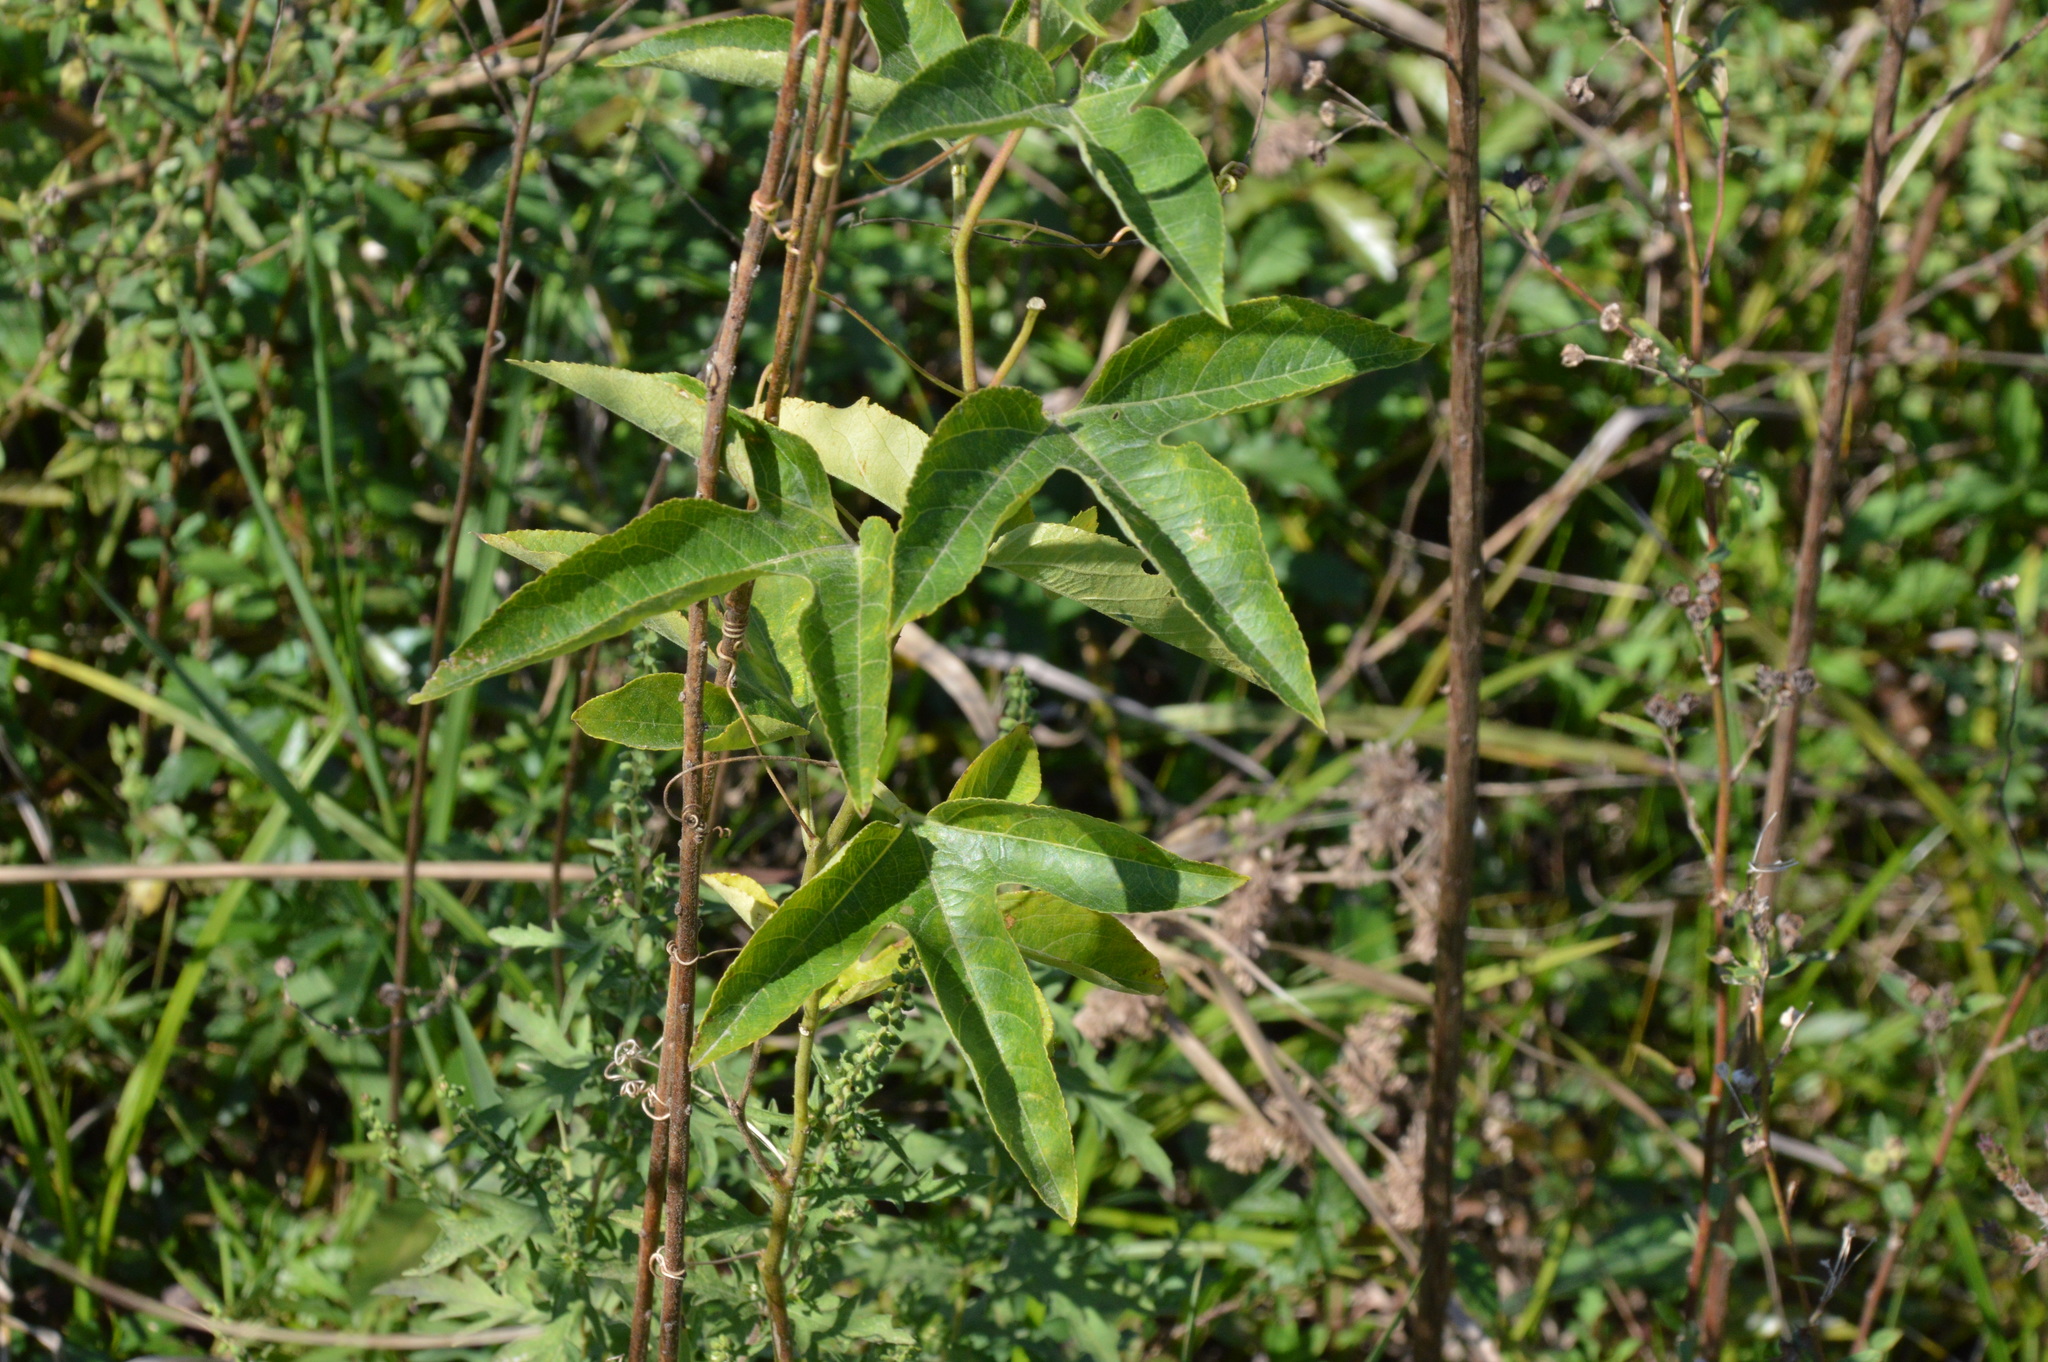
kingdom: Plantae
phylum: Tracheophyta
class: Magnoliopsida
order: Malpighiales
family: Passifloraceae
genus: Passiflora
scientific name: Passiflora incarnata
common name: Apricot-vine
